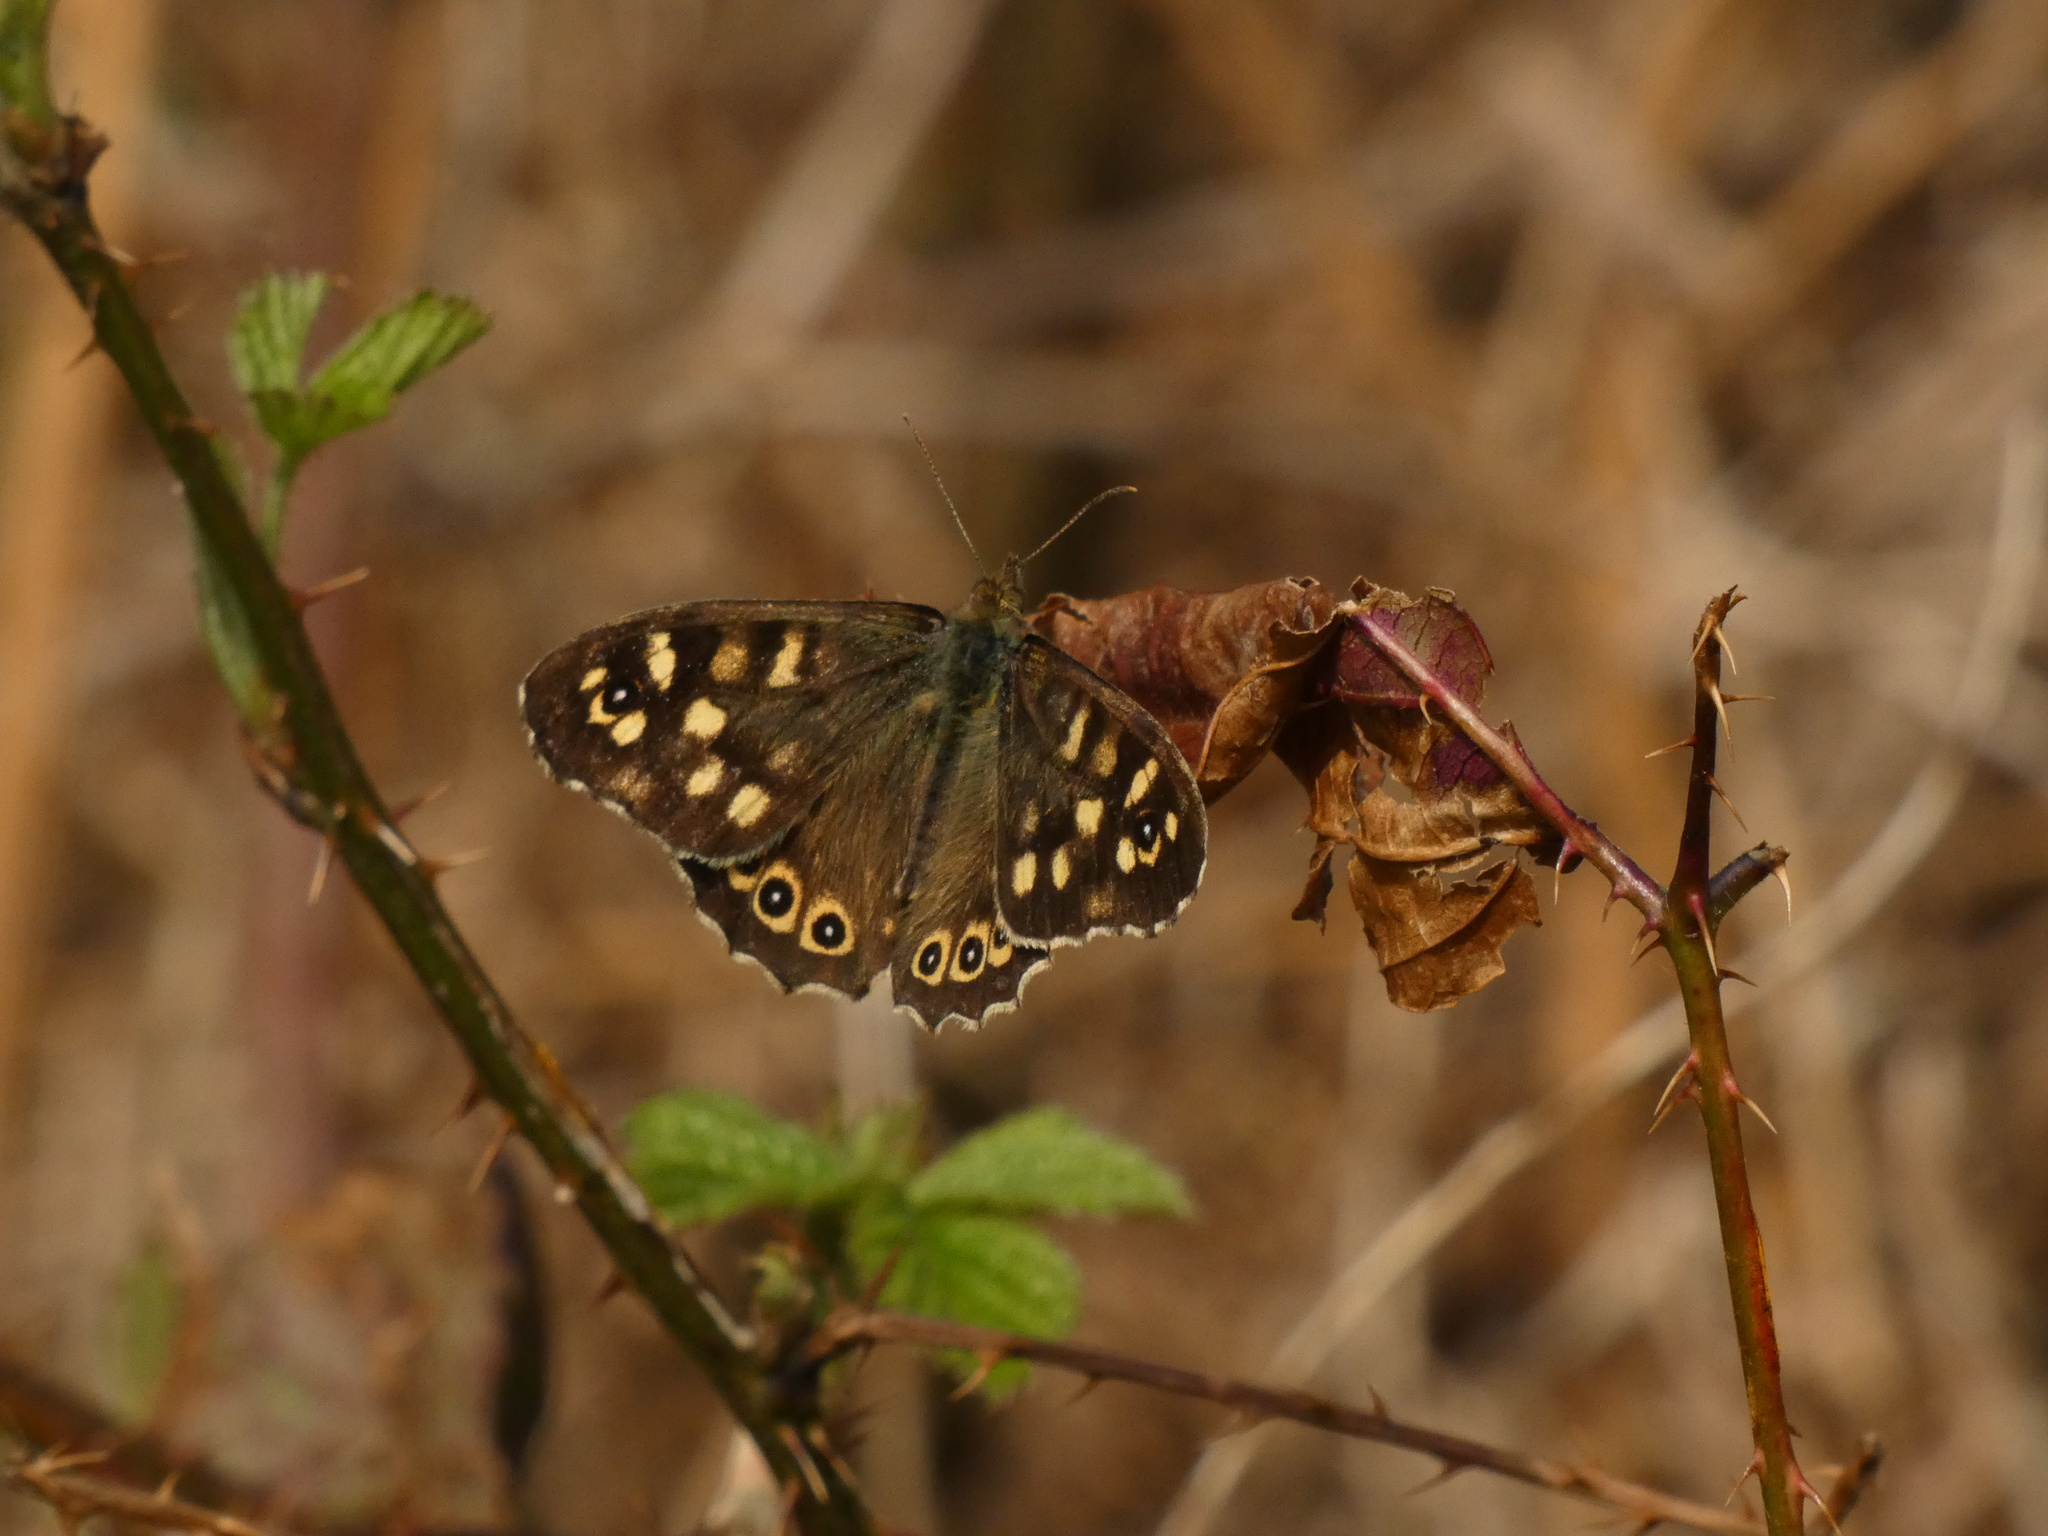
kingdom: Animalia
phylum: Arthropoda
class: Insecta
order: Lepidoptera
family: Nymphalidae
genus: Pararge
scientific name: Pararge aegeria
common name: Speckled wood
